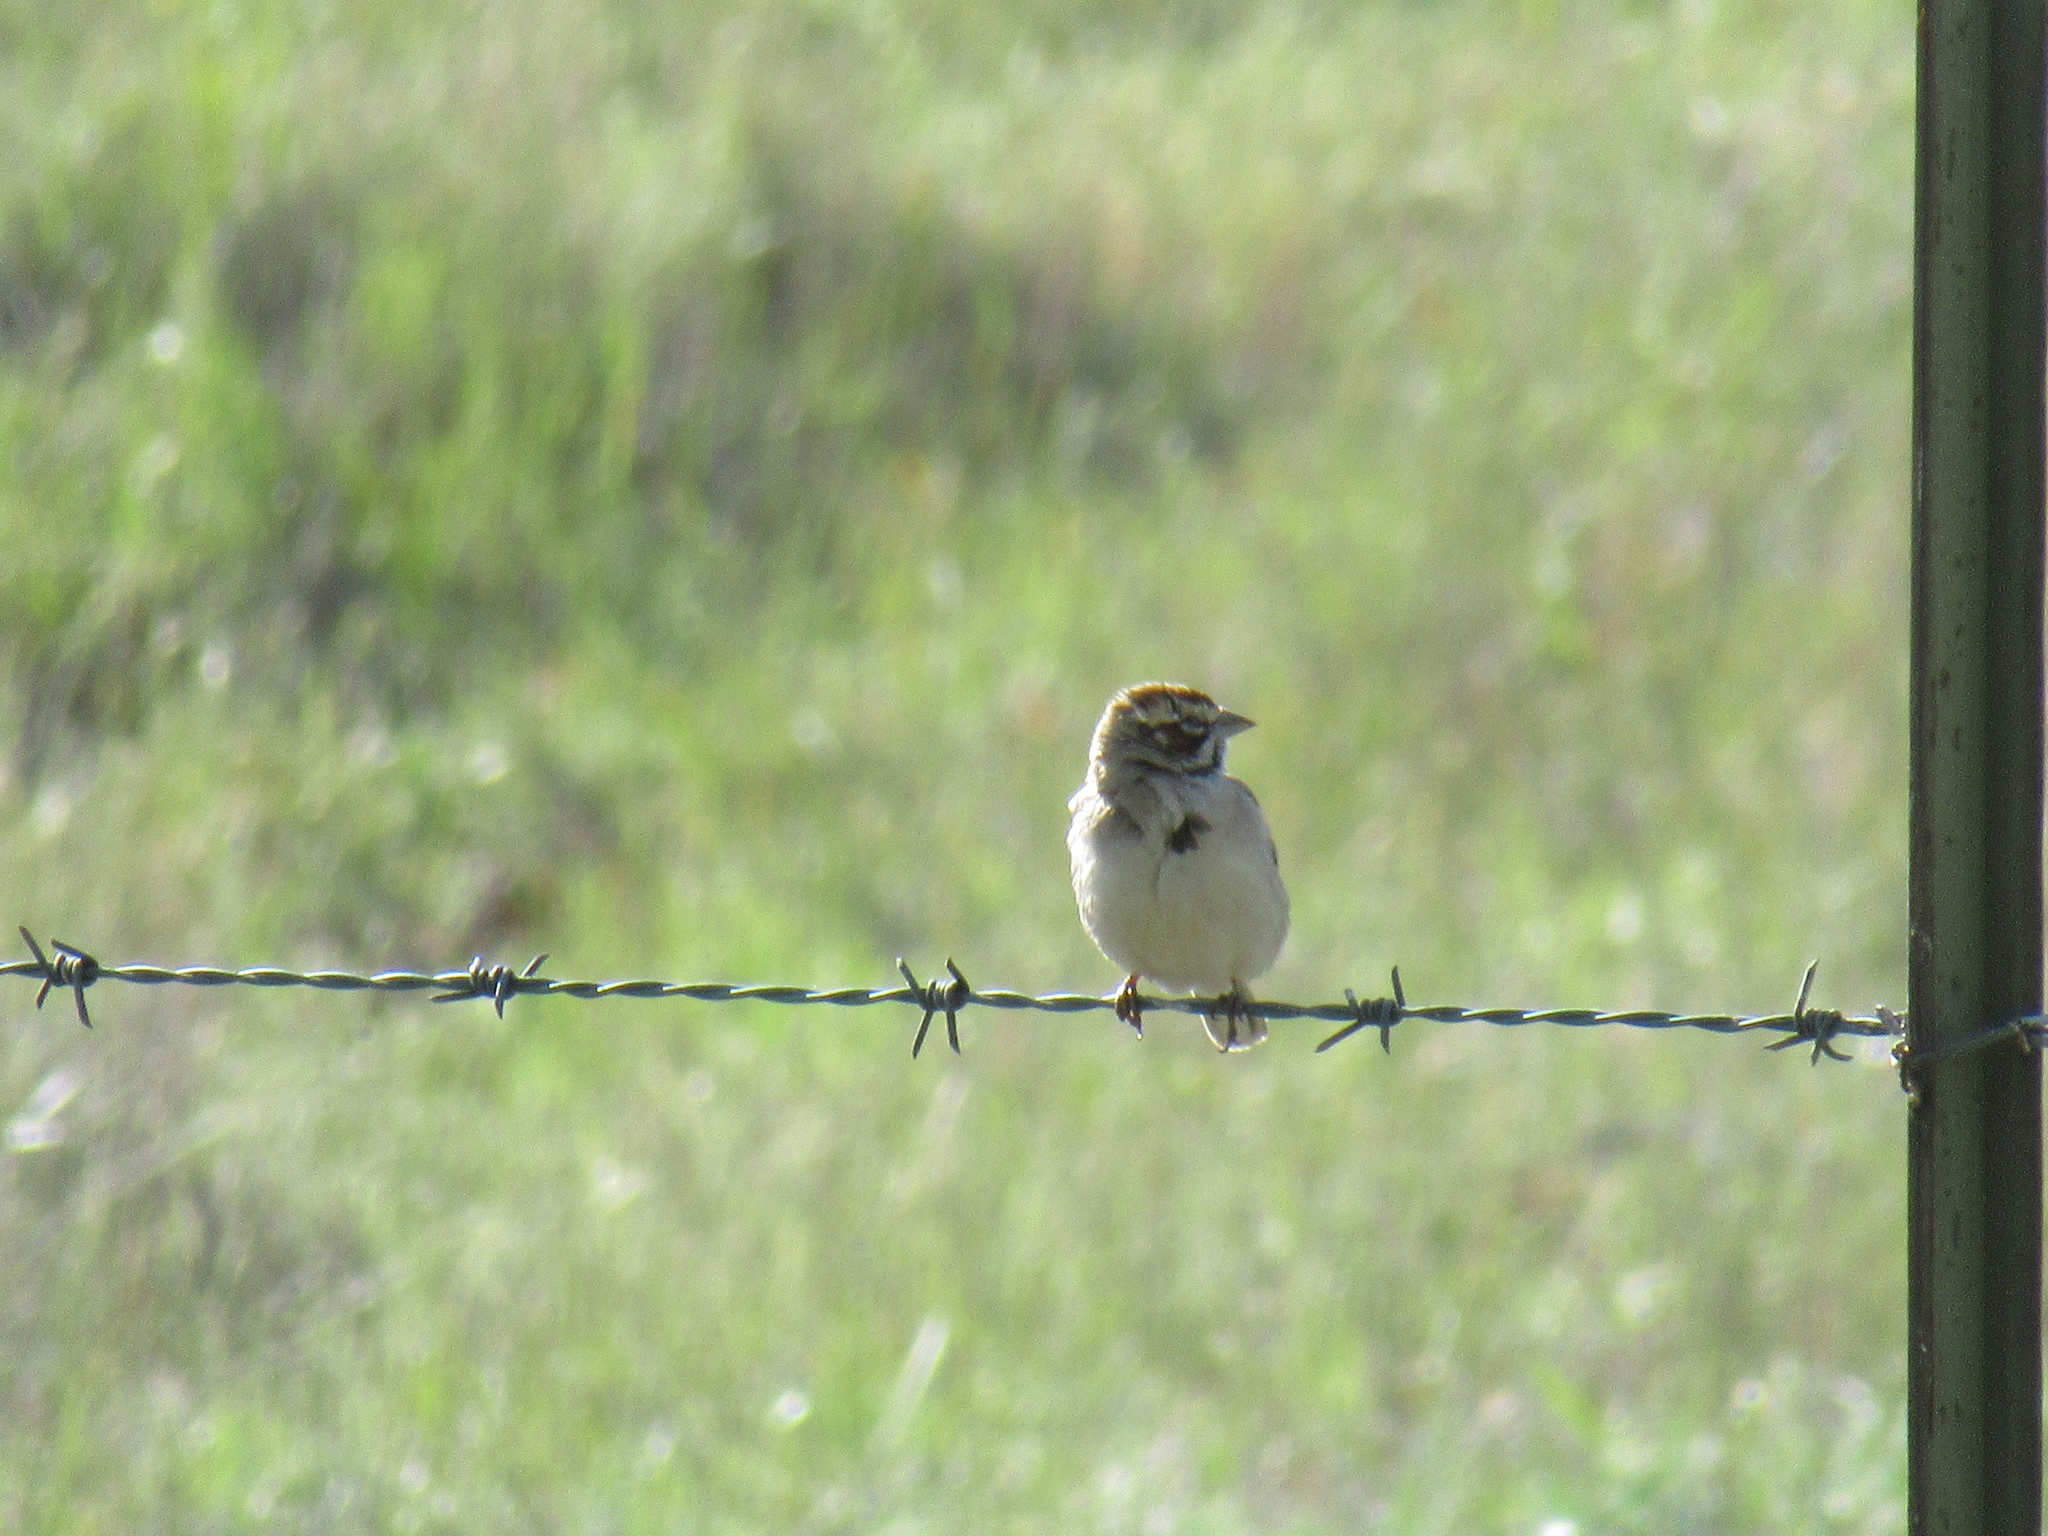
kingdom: Animalia
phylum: Chordata
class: Aves
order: Passeriformes
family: Passerellidae
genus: Chondestes
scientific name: Chondestes grammacus
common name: Lark sparrow
